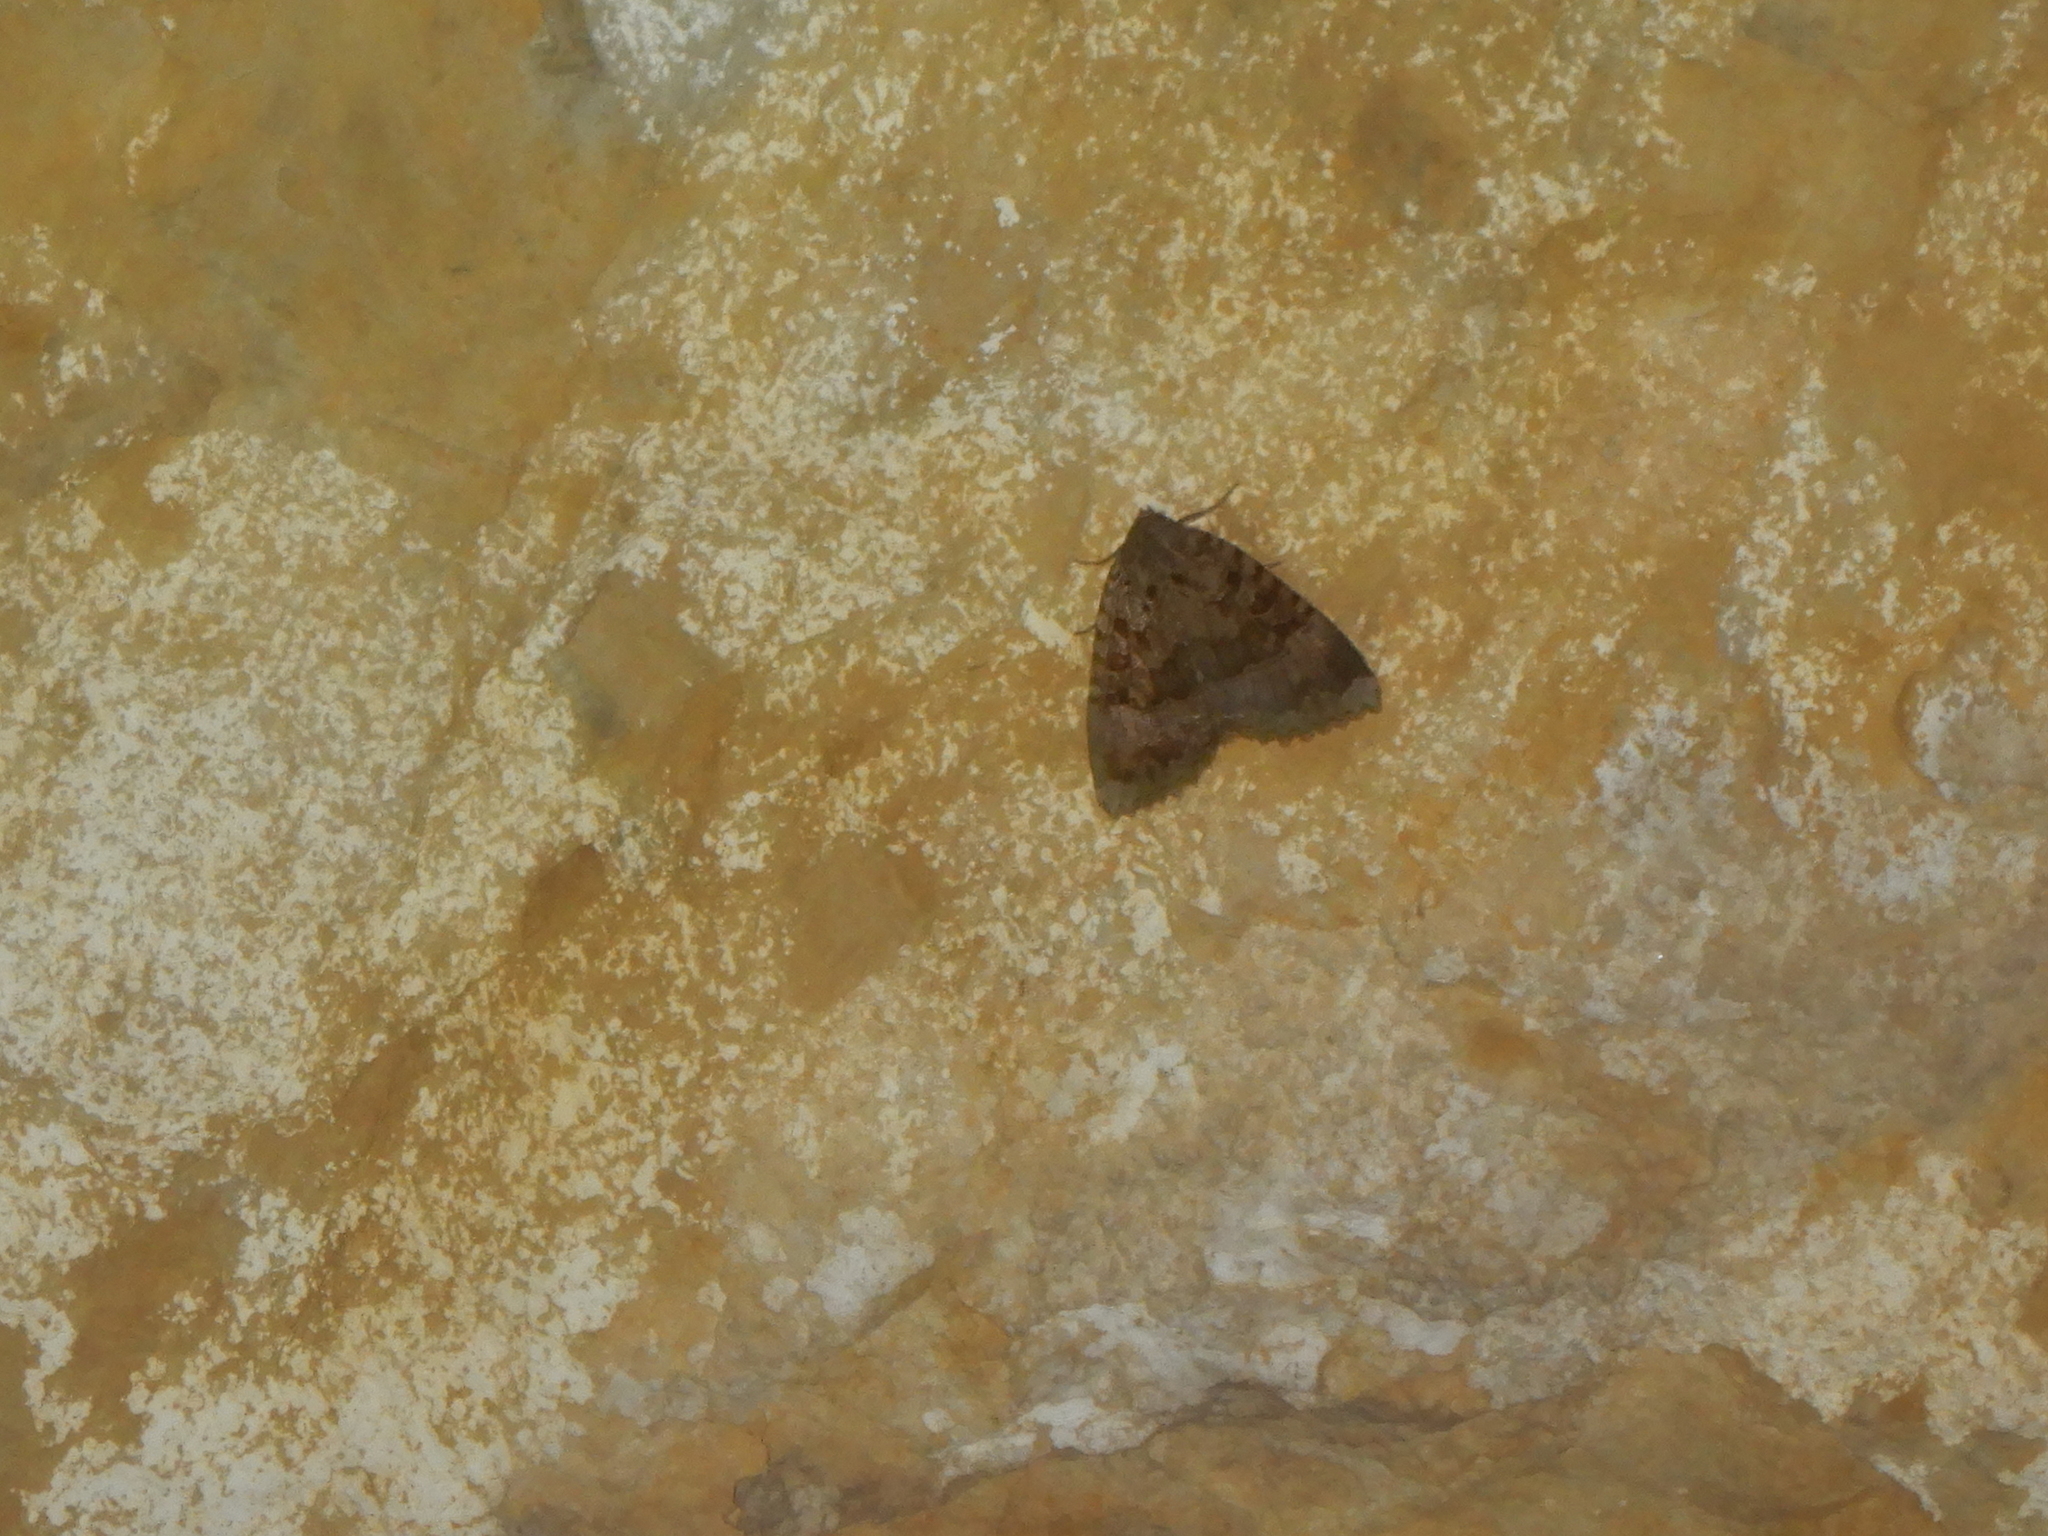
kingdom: Animalia
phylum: Arthropoda
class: Insecta
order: Lepidoptera
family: Noctuidae
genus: Mormo
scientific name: Mormo maura
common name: Old lady
